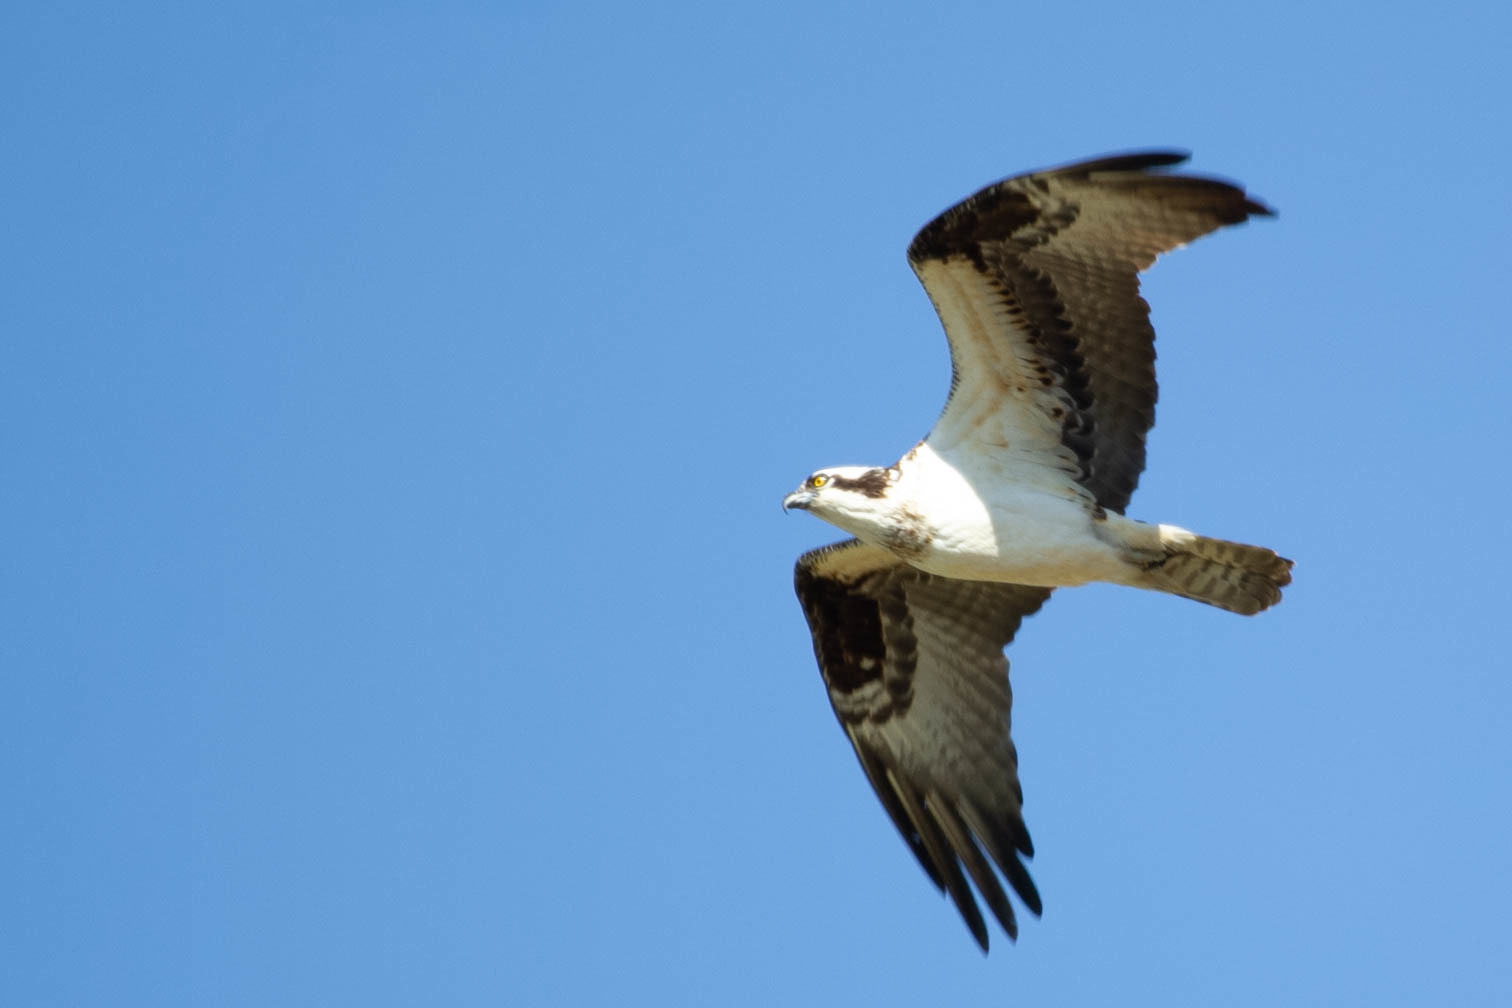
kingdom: Animalia
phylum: Chordata
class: Aves
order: Accipitriformes
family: Pandionidae
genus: Pandion
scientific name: Pandion haliaetus
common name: Osprey
